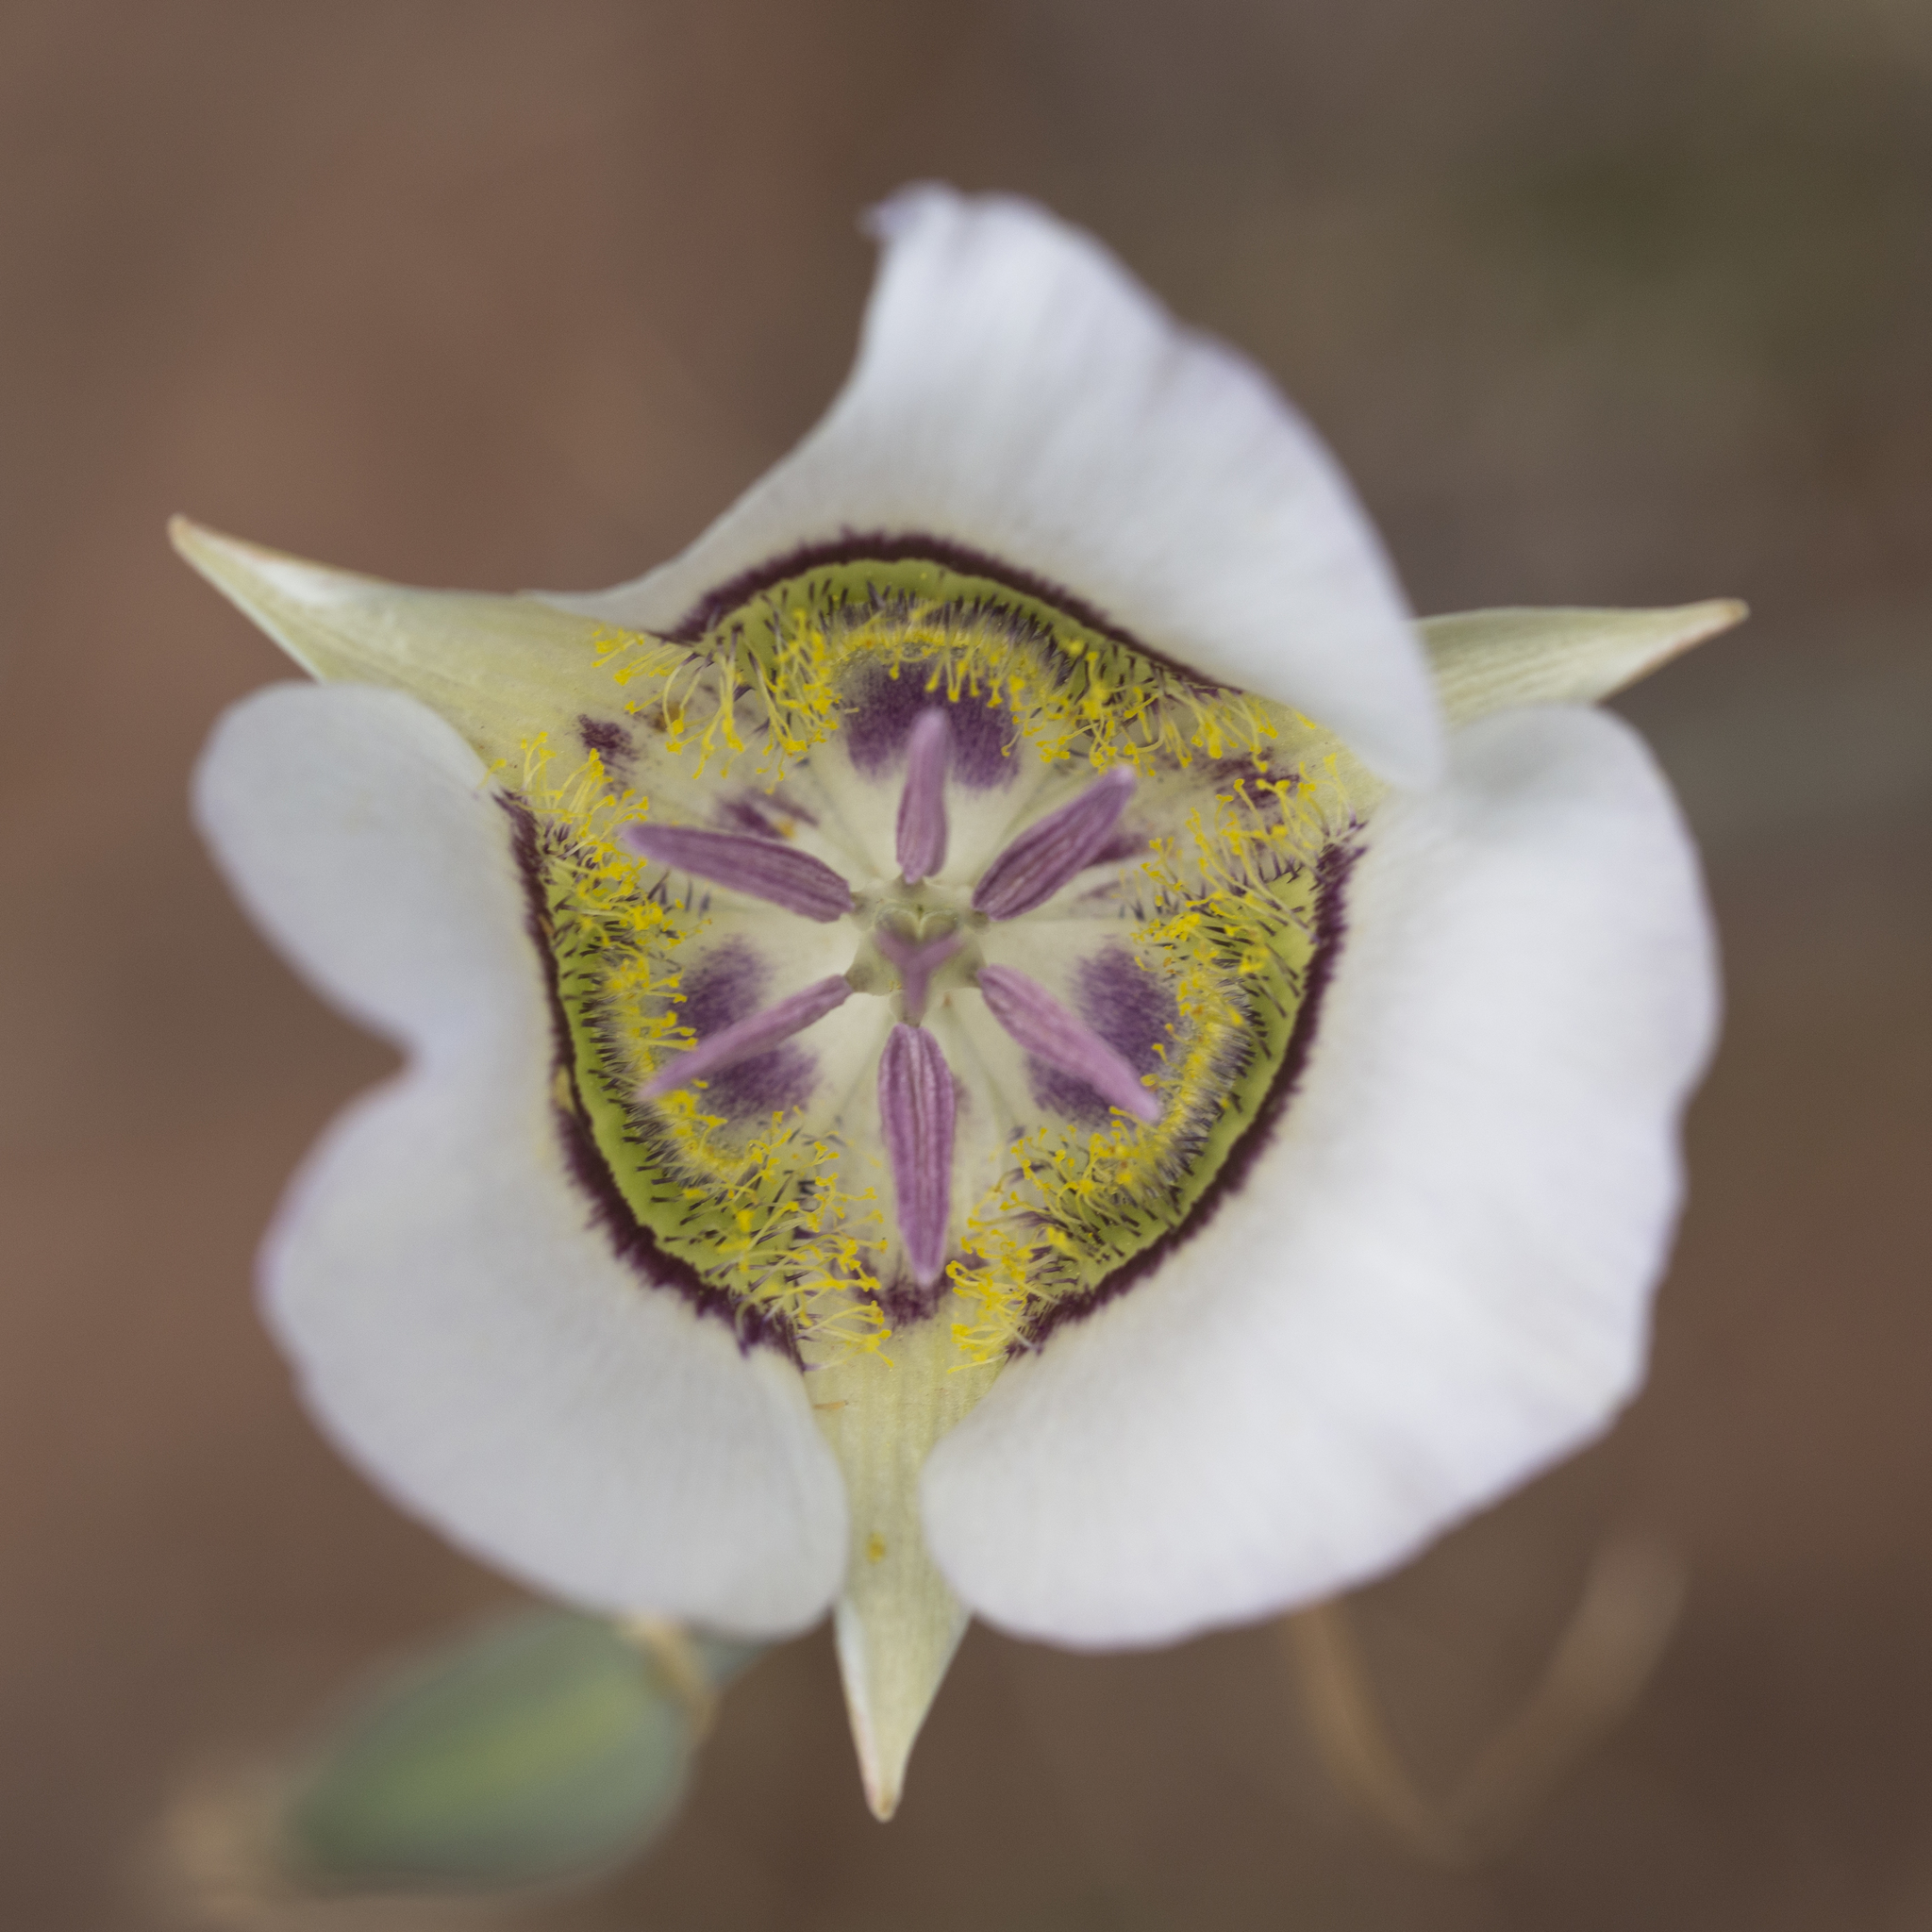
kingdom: Plantae
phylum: Tracheophyta
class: Liliopsida
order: Liliales
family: Liliaceae
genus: Calochortus
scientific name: Calochortus gunnisonii
